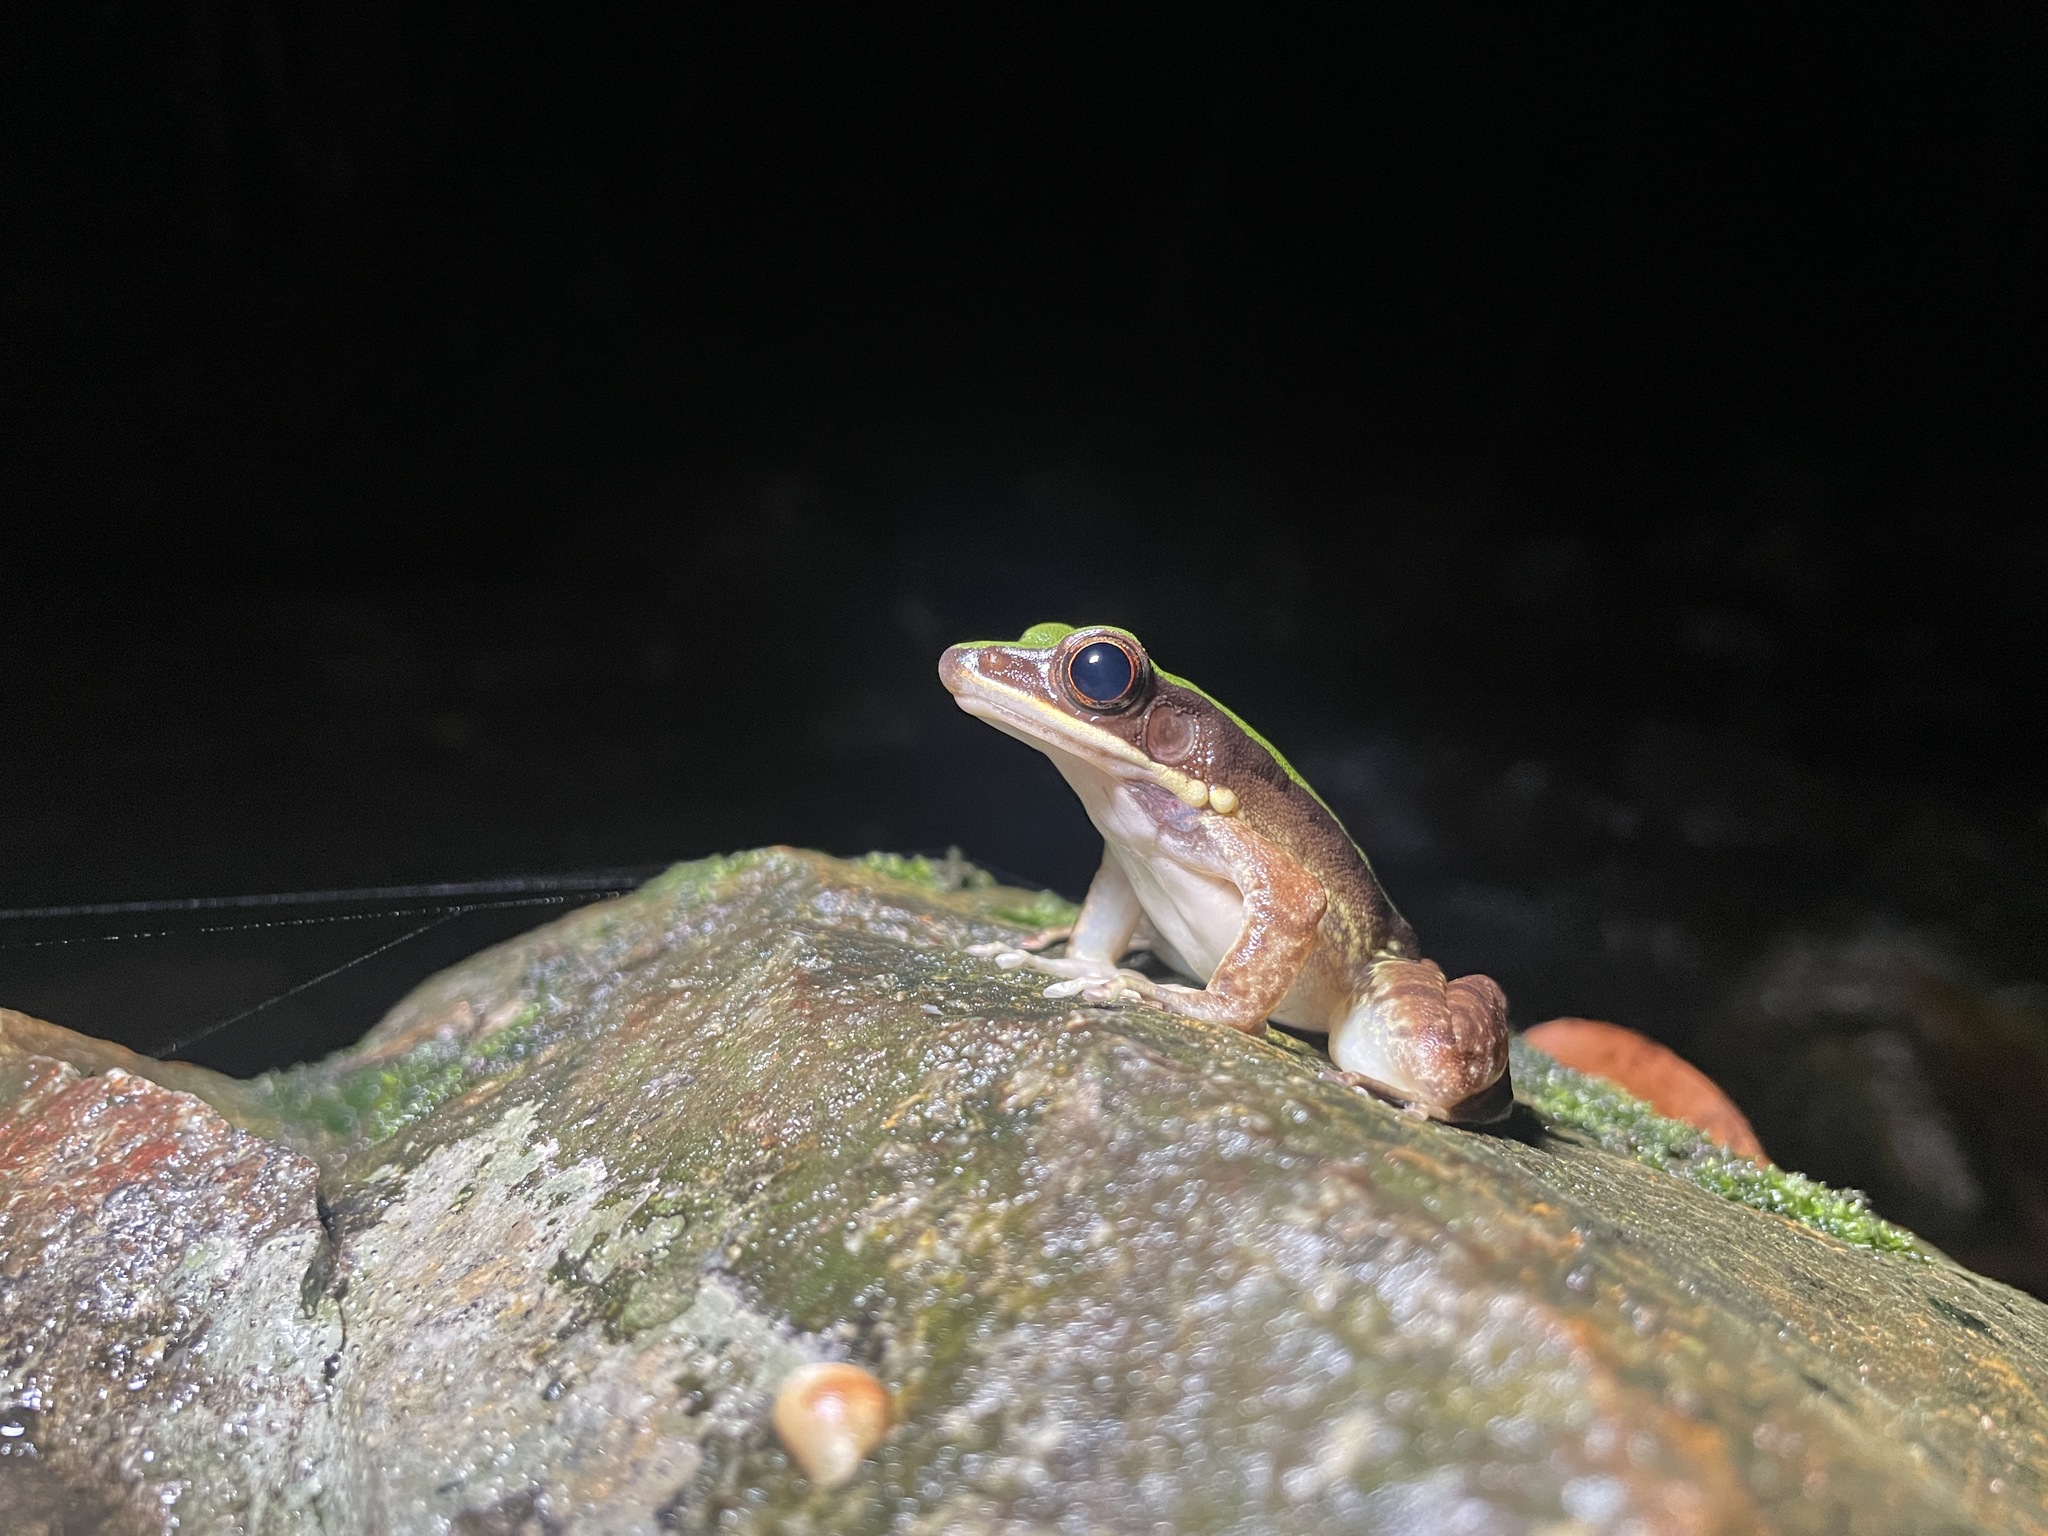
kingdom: Animalia
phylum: Chordata
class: Amphibia
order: Anura
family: Ranidae
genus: Odorrana
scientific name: Odorrana graminea
